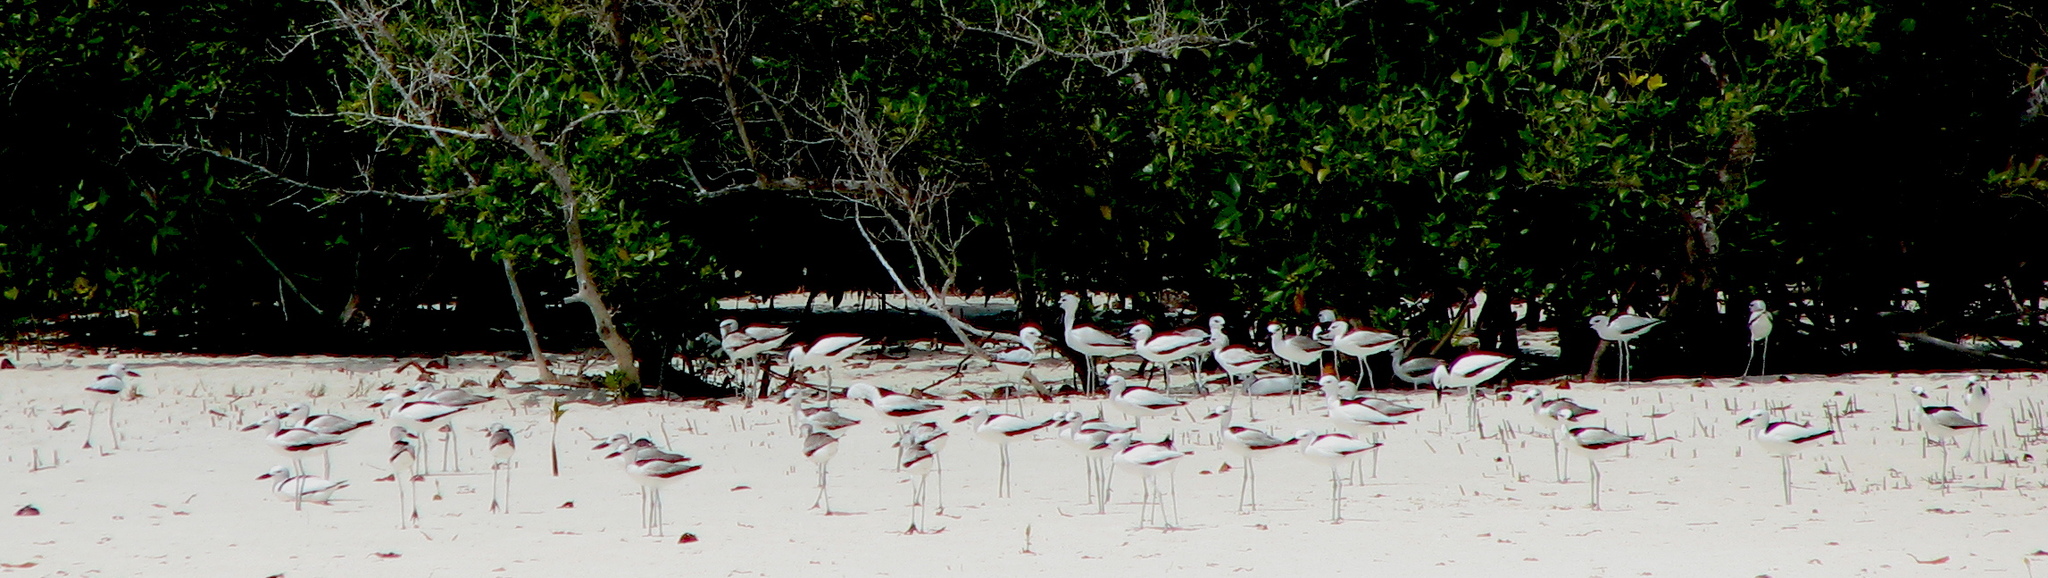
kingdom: Animalia
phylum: Chordata
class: Aves
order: Charadriiformes
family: Dromadidae
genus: Dromas
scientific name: Dromas ardeola
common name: Crab-plover
